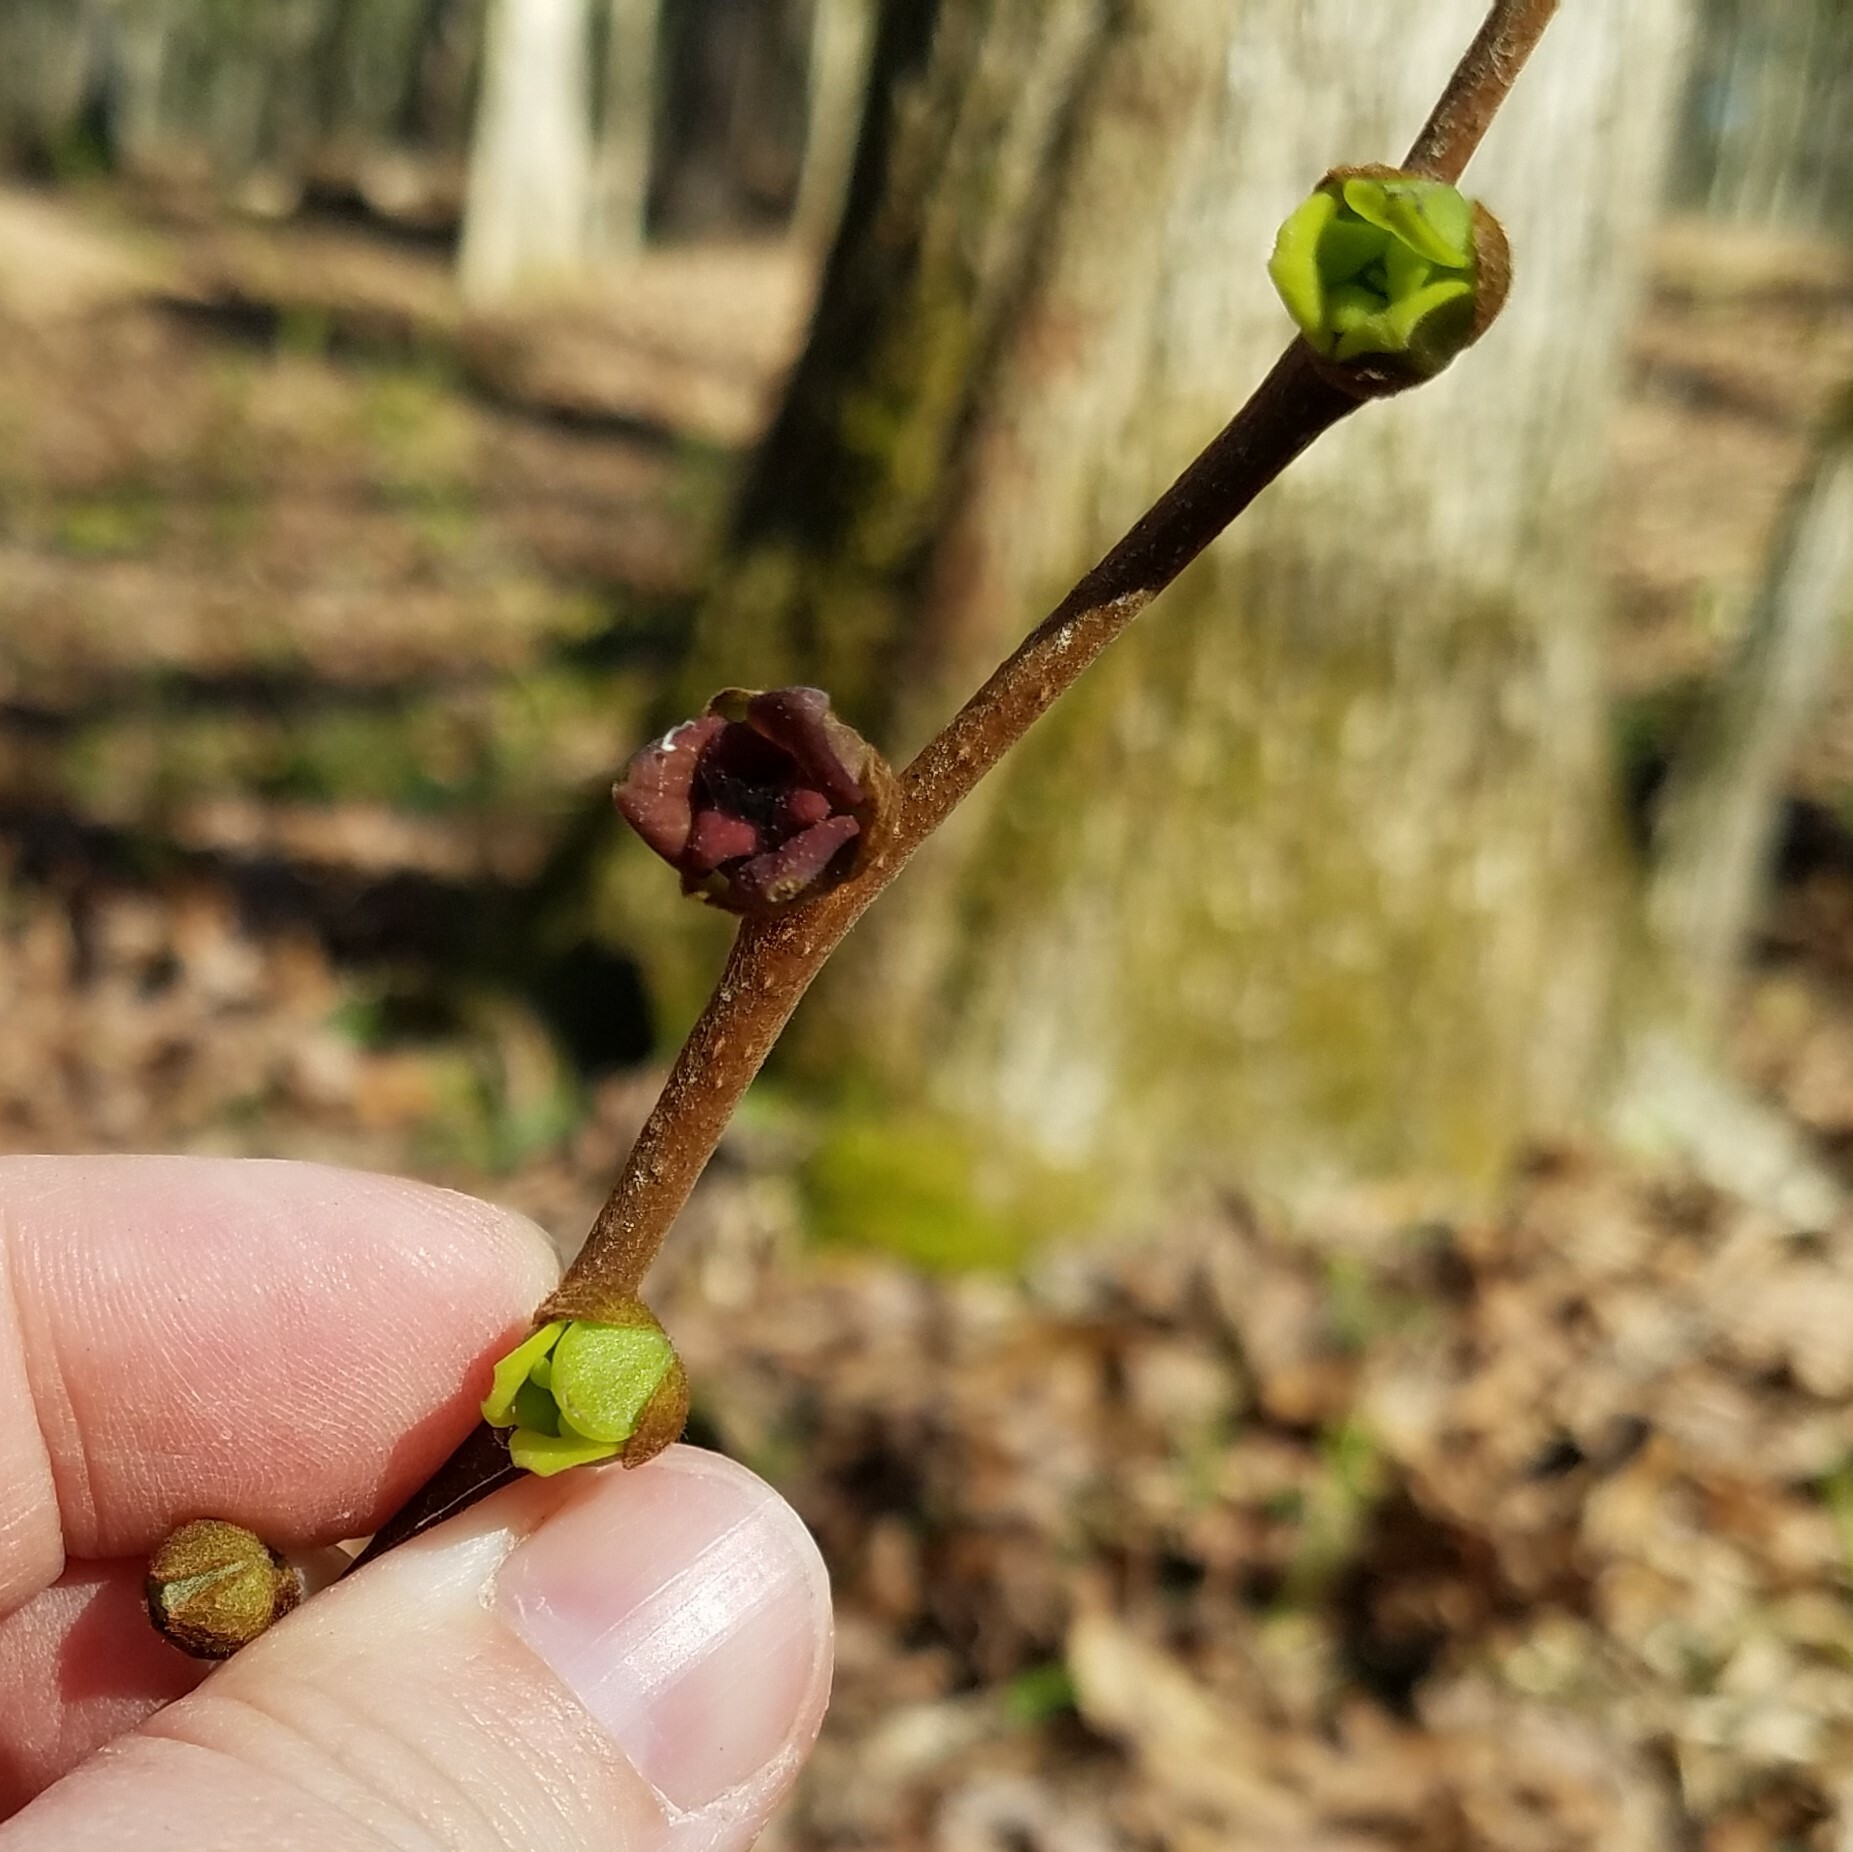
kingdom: Plantae
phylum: Tracheophyta
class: Magnoliopsida
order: Magnoliales
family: Annonaceae
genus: Asimina
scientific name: Asimina parviflora
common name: Dwarf pawpaw
